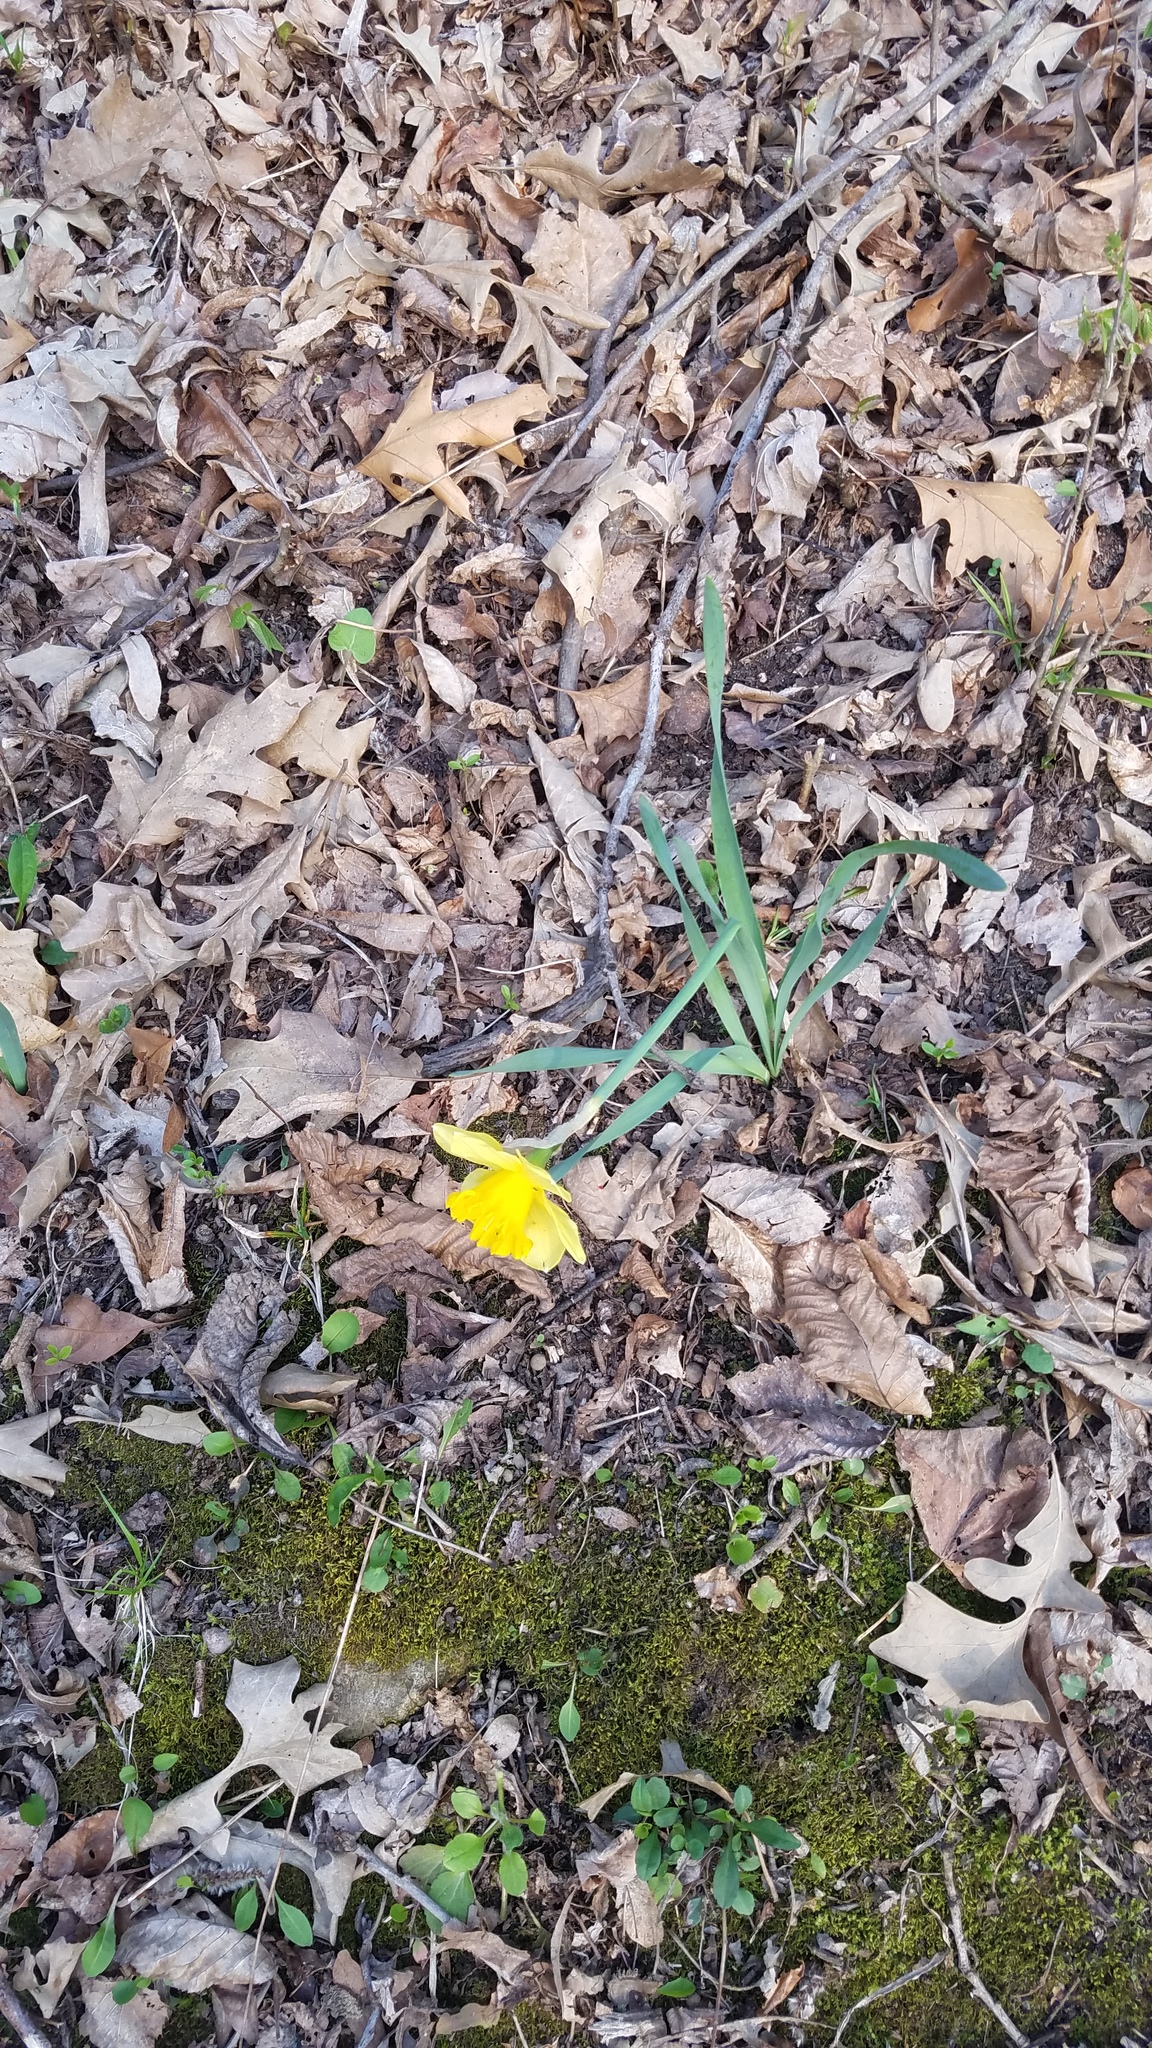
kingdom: Plantae
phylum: Tracheophyta
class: Liliopsida
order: Asparagales
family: Amaryllidaceae
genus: Narcissus
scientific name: Narcissus
